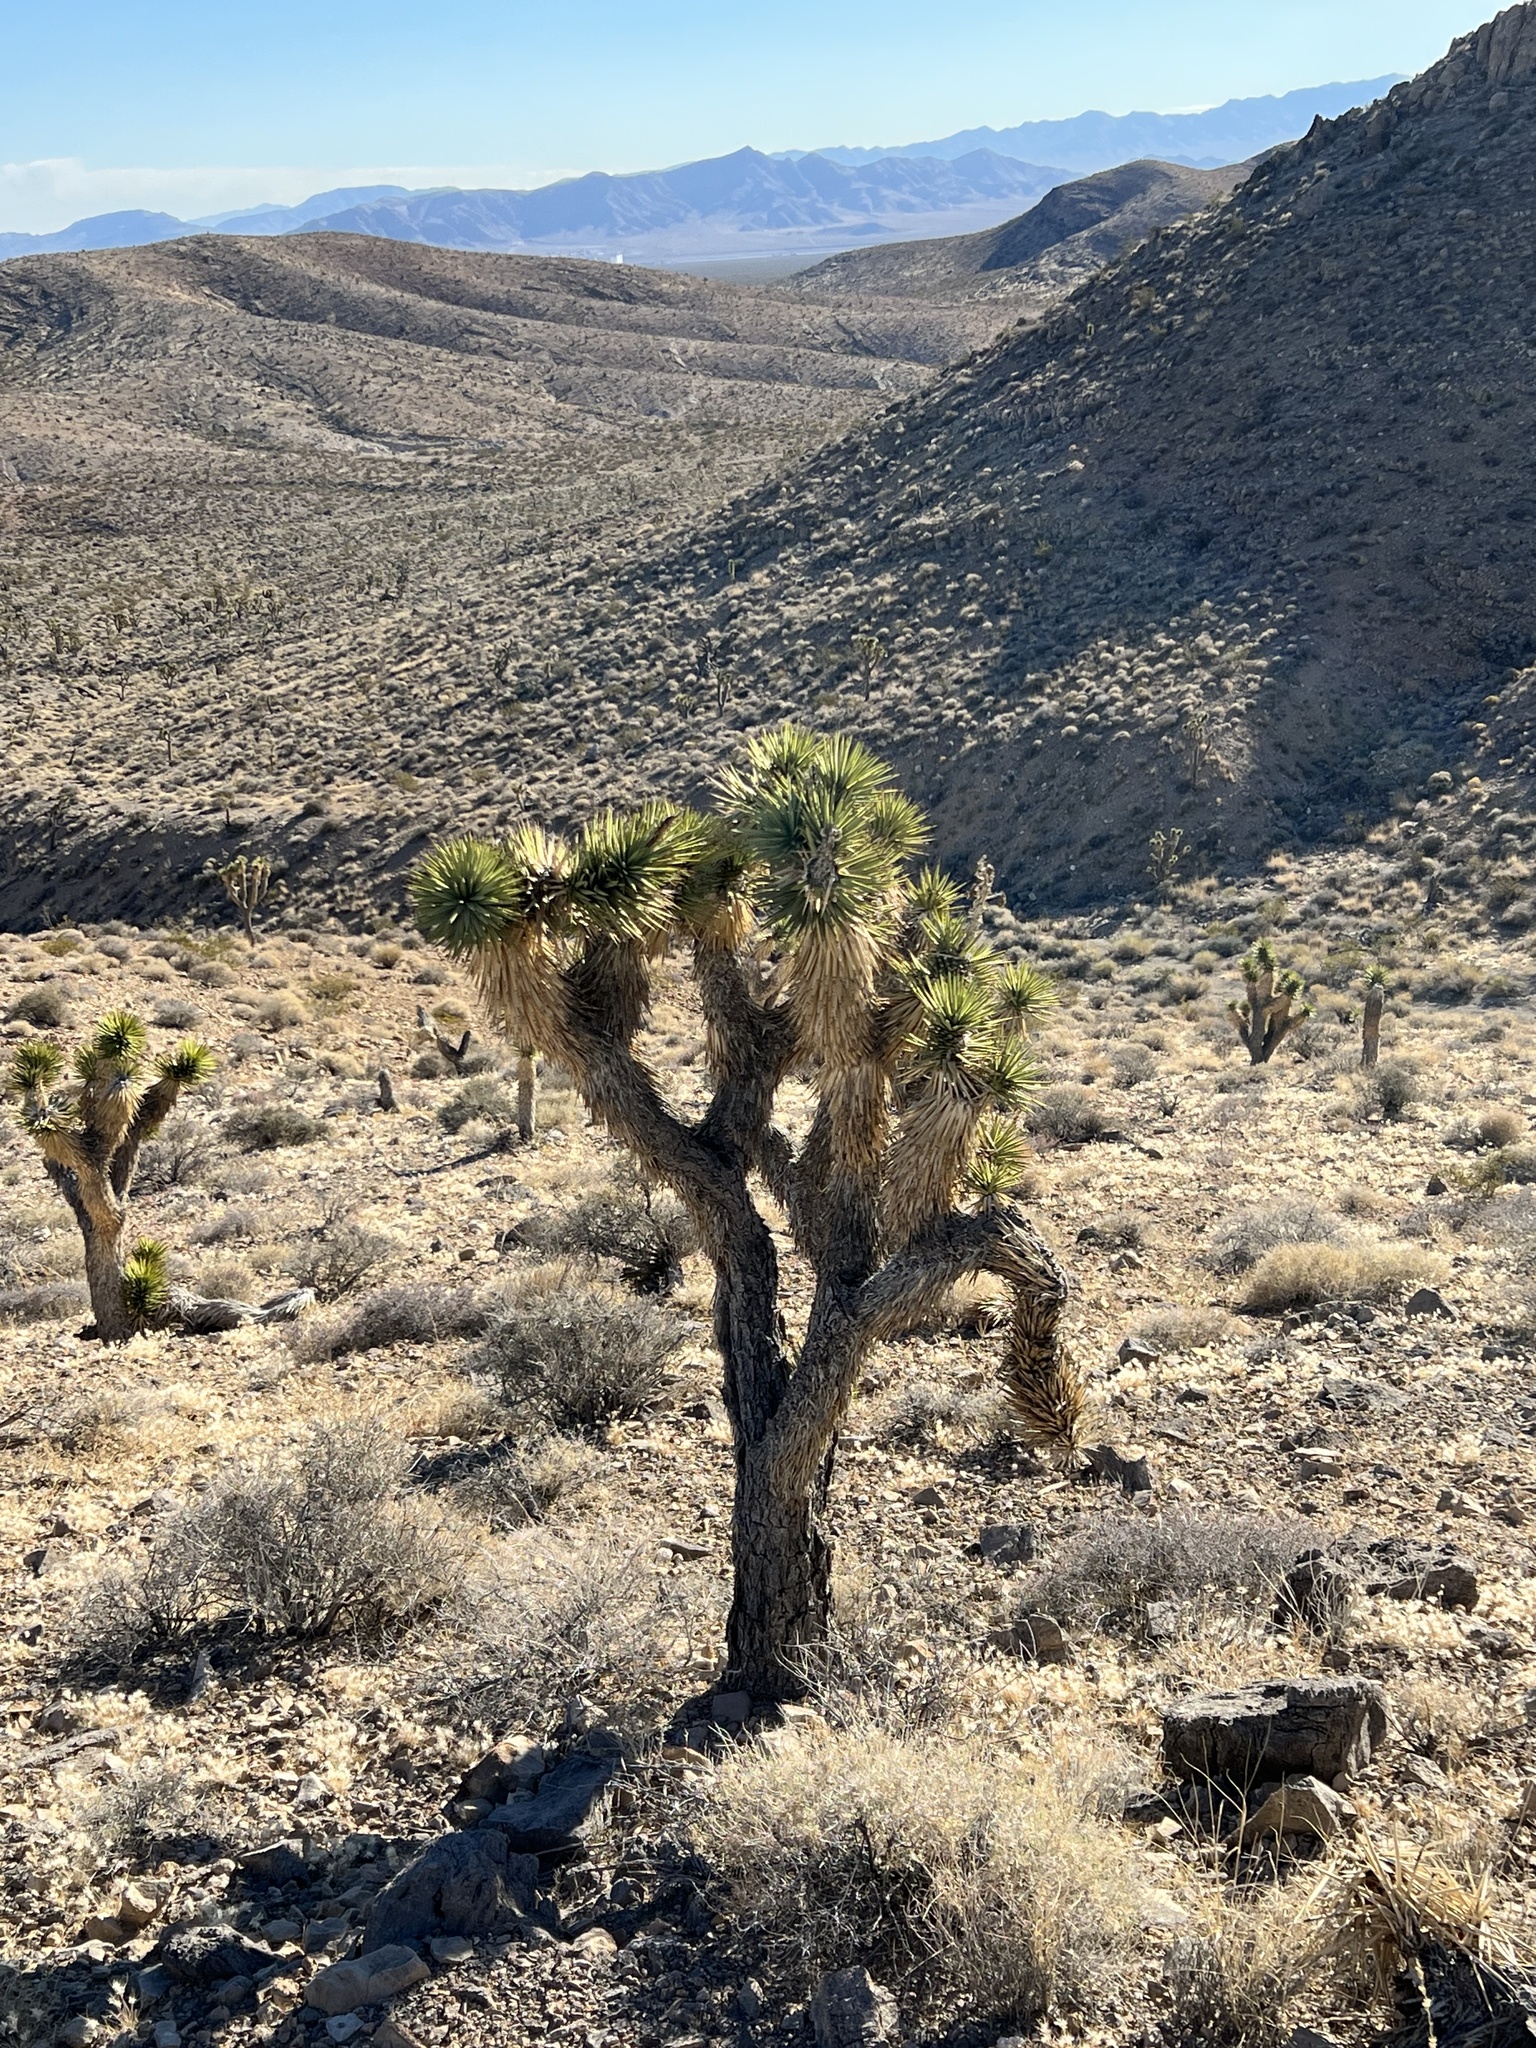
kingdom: Plantae
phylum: Tracheophyta
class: Liliopsida
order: Asparagales
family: Asparagaceae
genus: Yucca
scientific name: Yucca brevifolia
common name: Joshua tree
